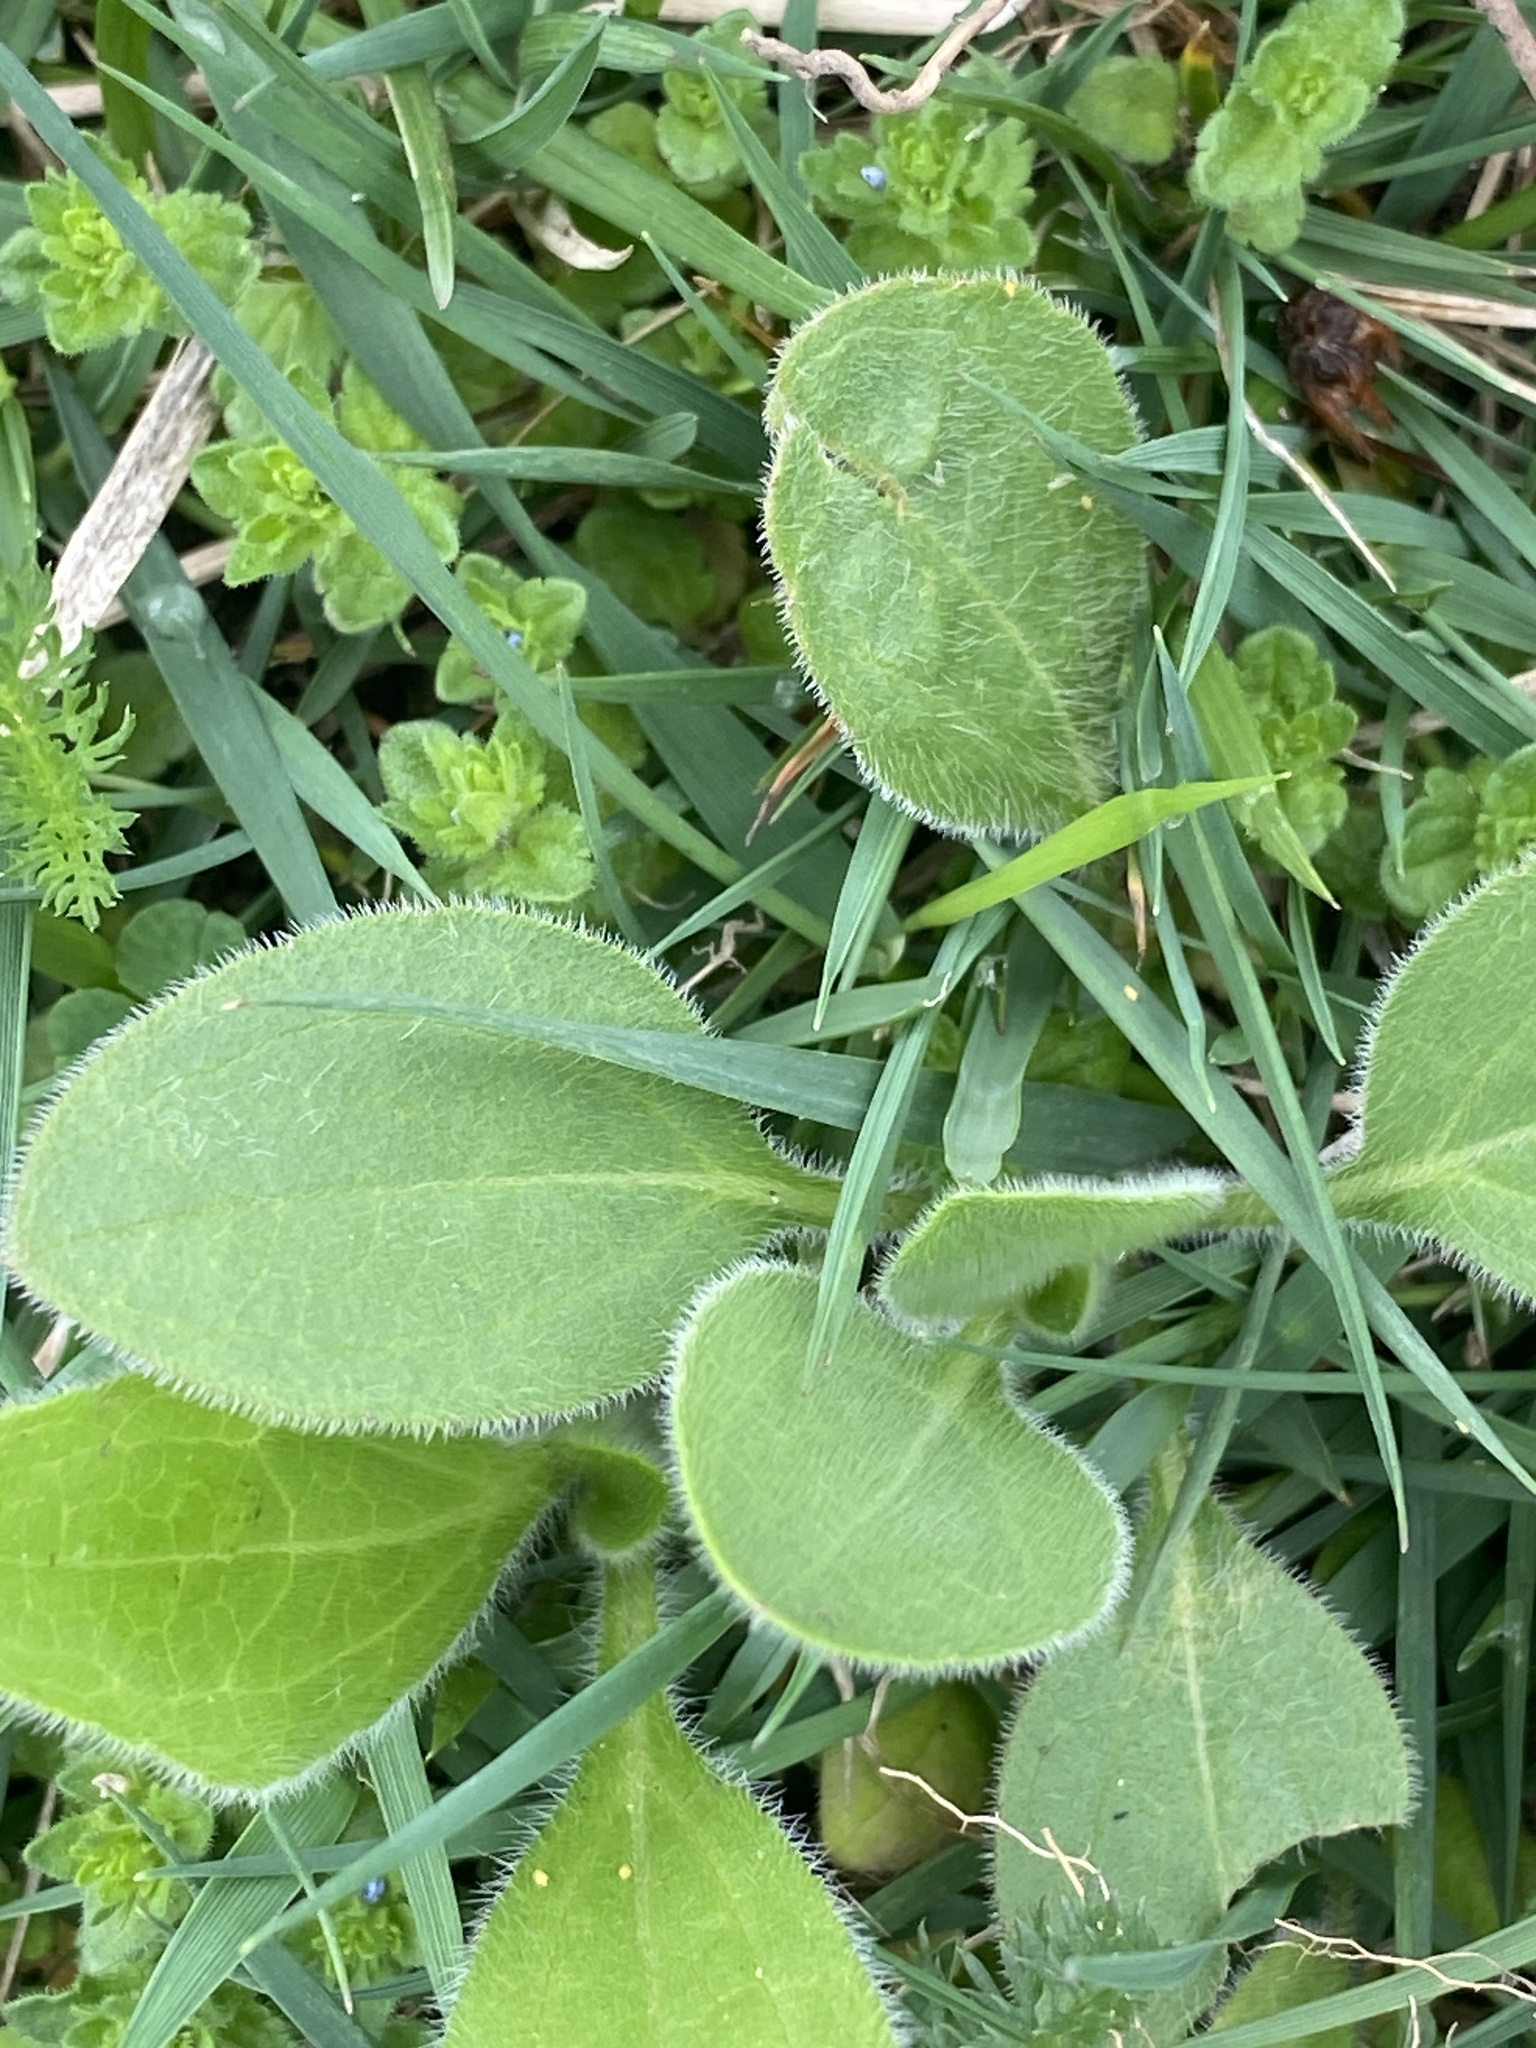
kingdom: Plantae
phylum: Tracheophyta
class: Magnoliopsida
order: Asterales
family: Asteraceae
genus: Rudbeckia
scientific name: Rudbeckia hirta
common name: Black-eyed-susan
